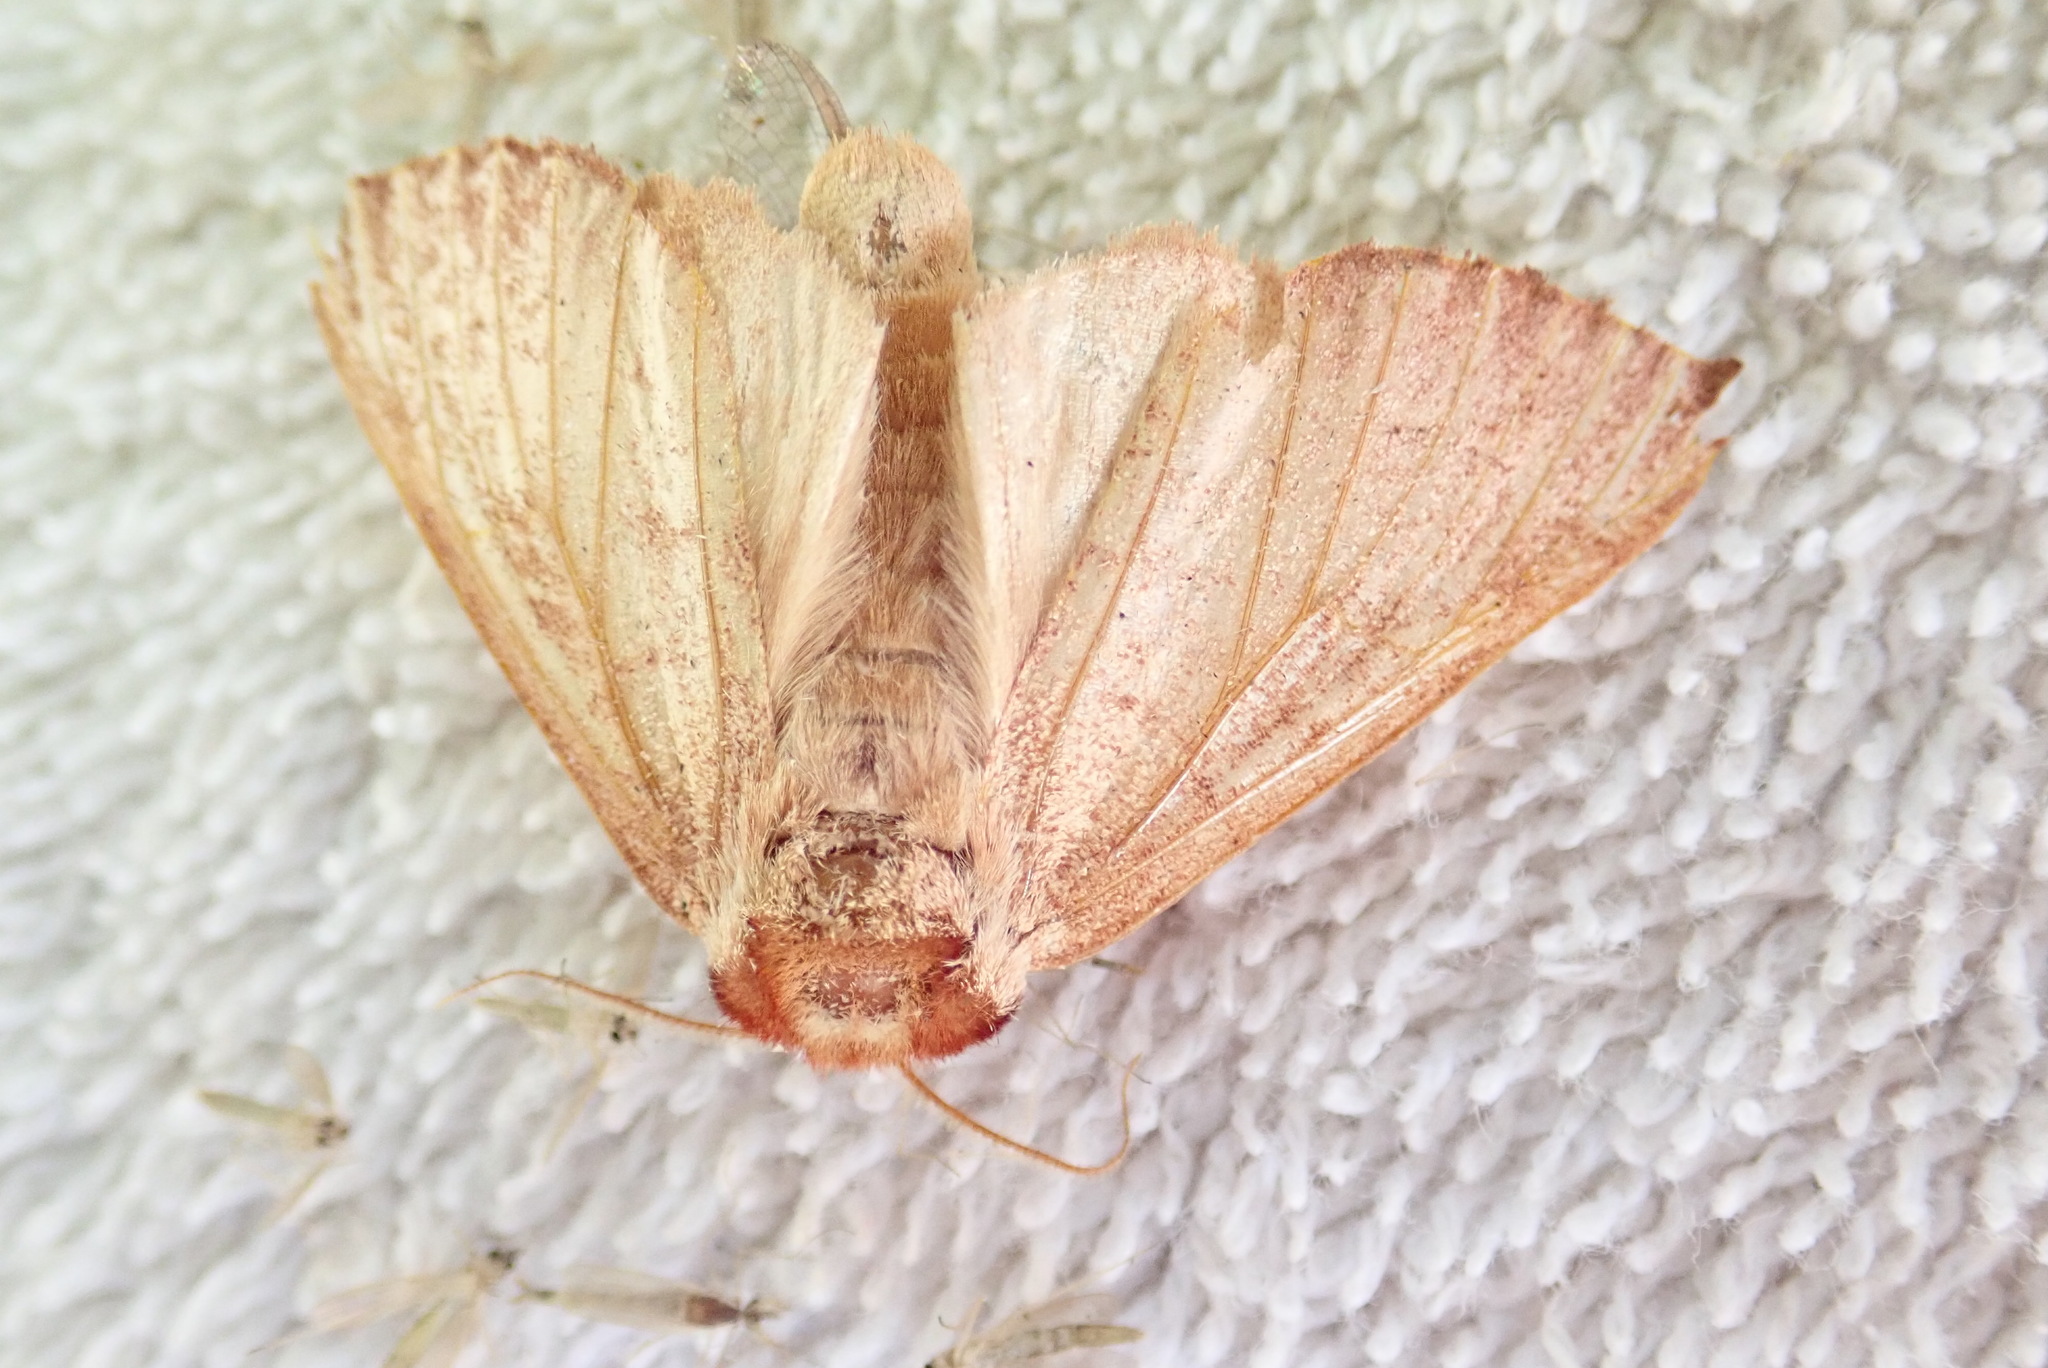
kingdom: Animalia
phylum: Arthropoda
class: Insecta
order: Lepidoptera
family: Notodontidae
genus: Datana
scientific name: Datana ministra
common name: Yellow-necked caterpillar moth
